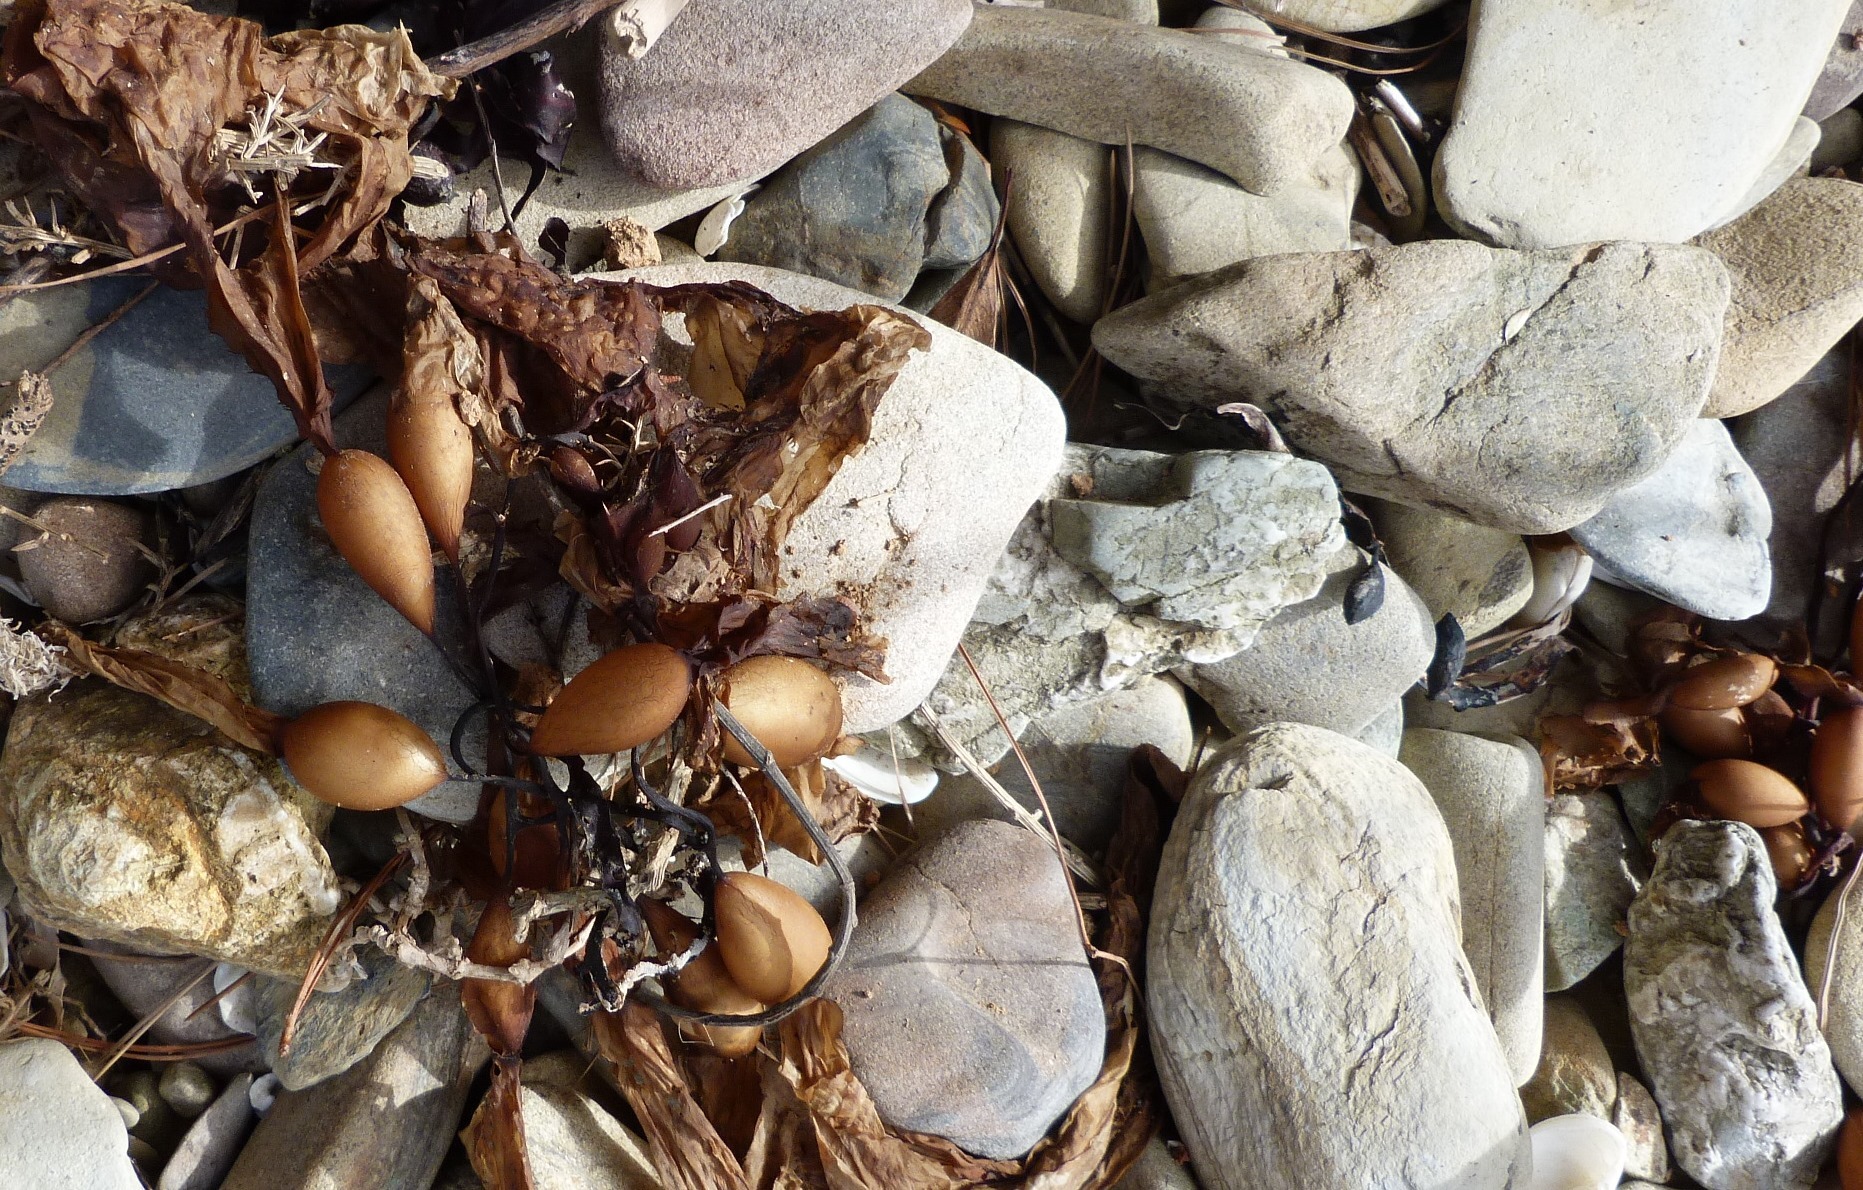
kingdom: Chromista
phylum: Ochrophyta
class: Phaeophyceae
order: Laminariales
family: Laminariaceae
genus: Macrocystis
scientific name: Macrocystis pyrifera
